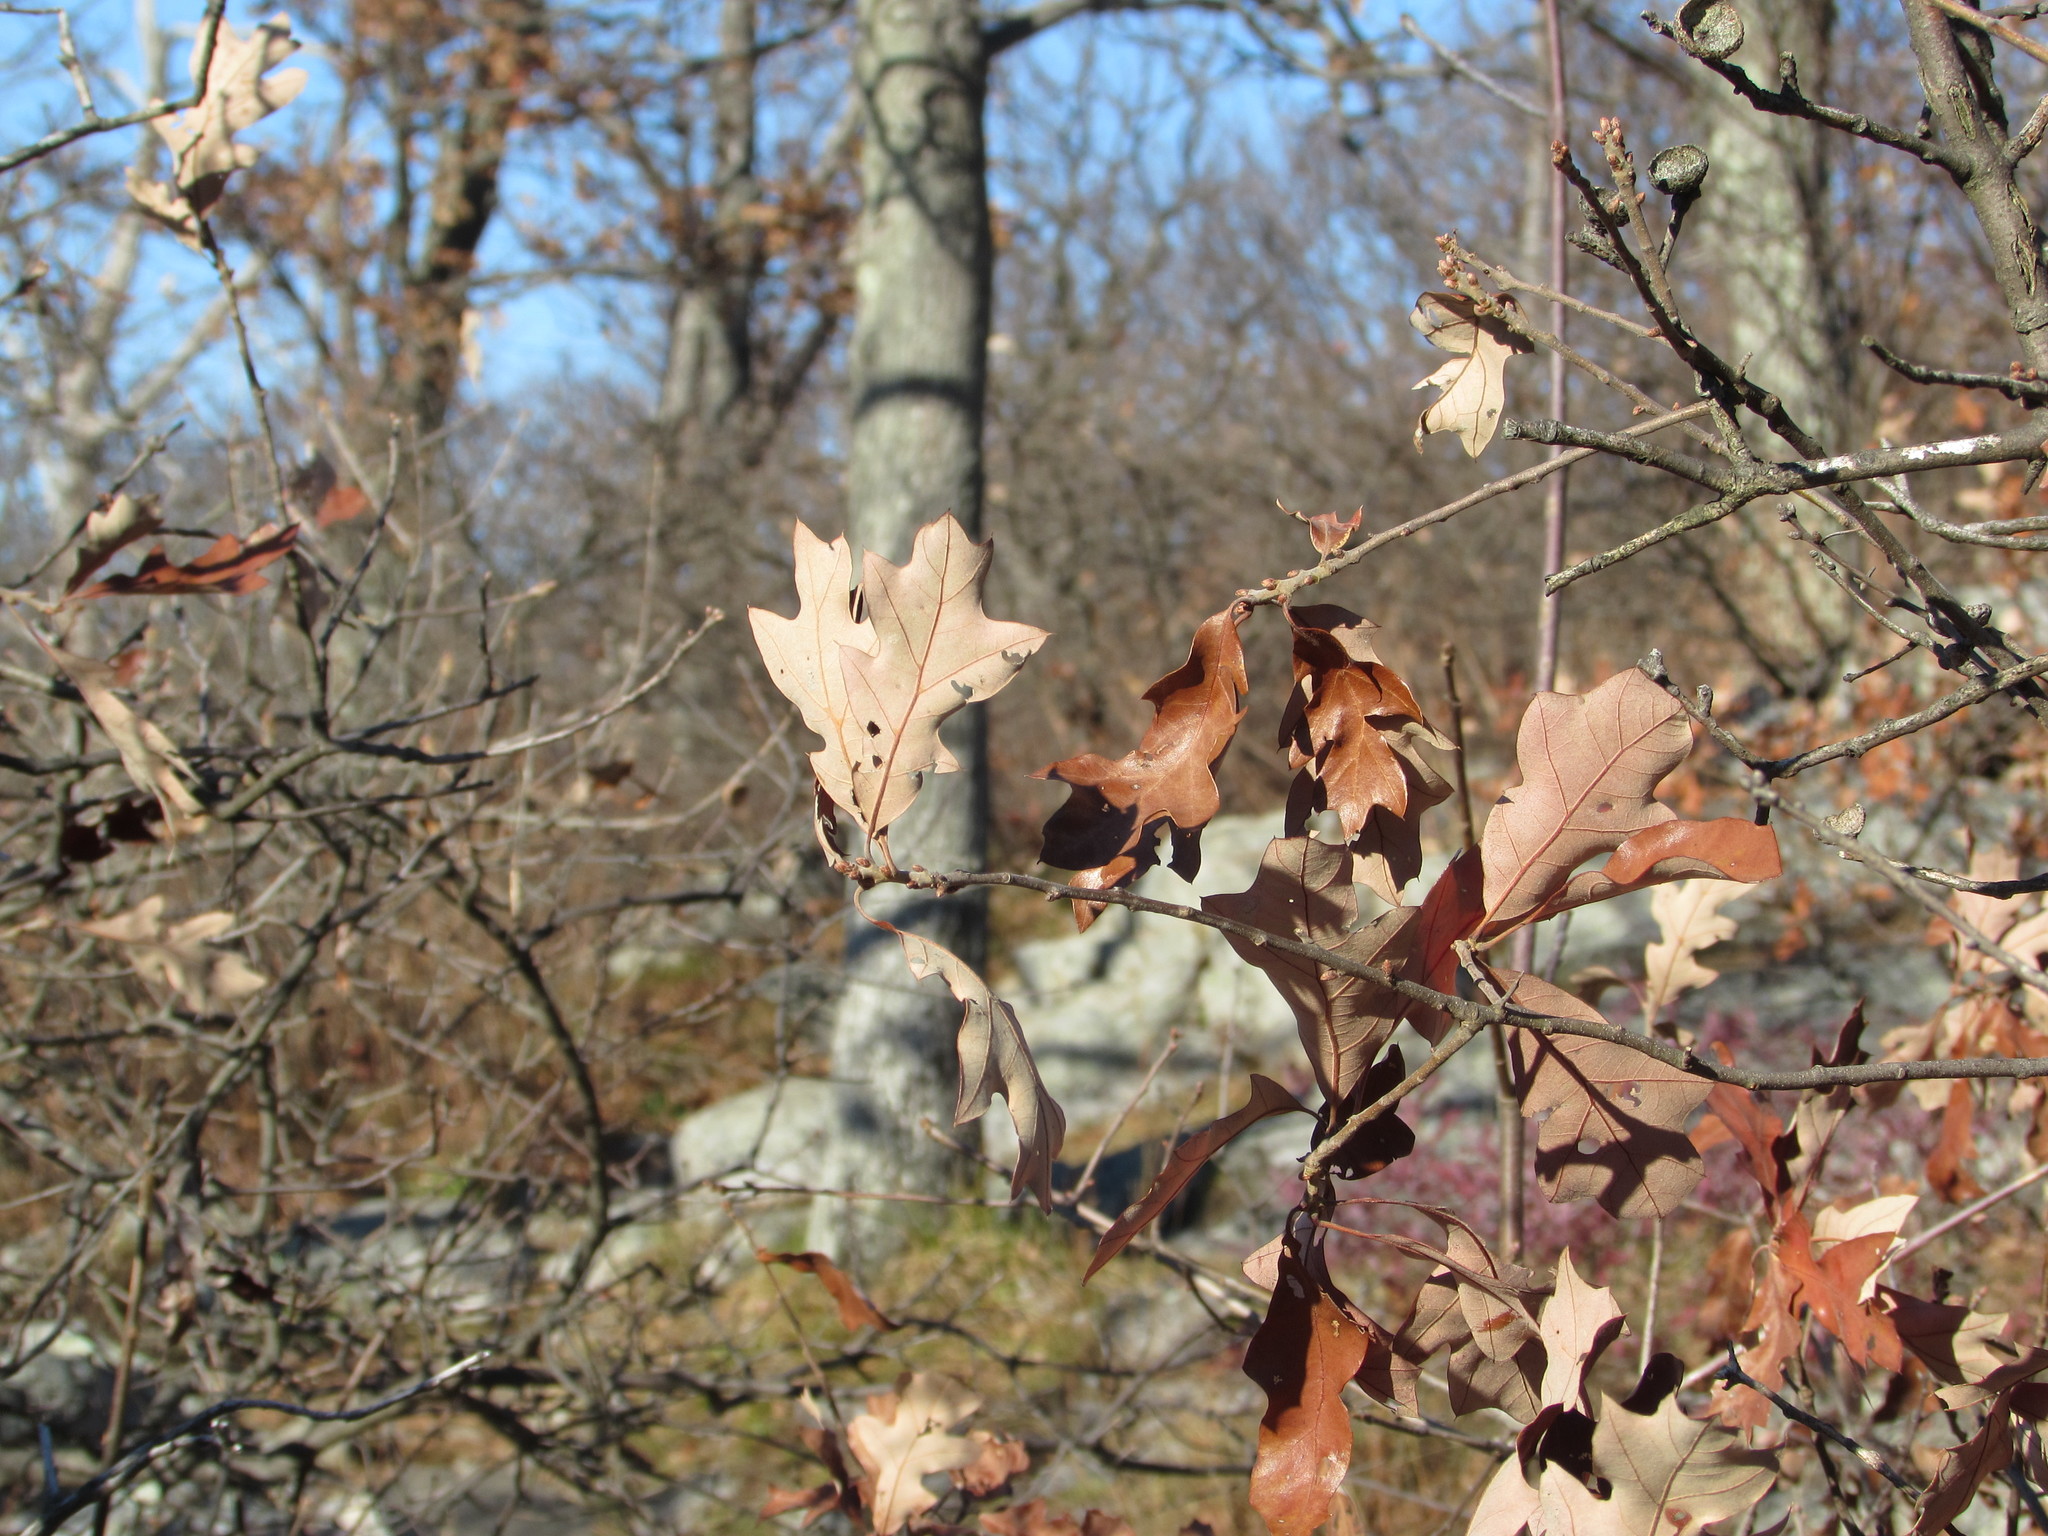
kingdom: Plantae
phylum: Tracheophyta
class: Magnoliopsida
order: Fagales
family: Fagaceae
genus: Quercus
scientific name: Quercus ilicifolia
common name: Bear oak
